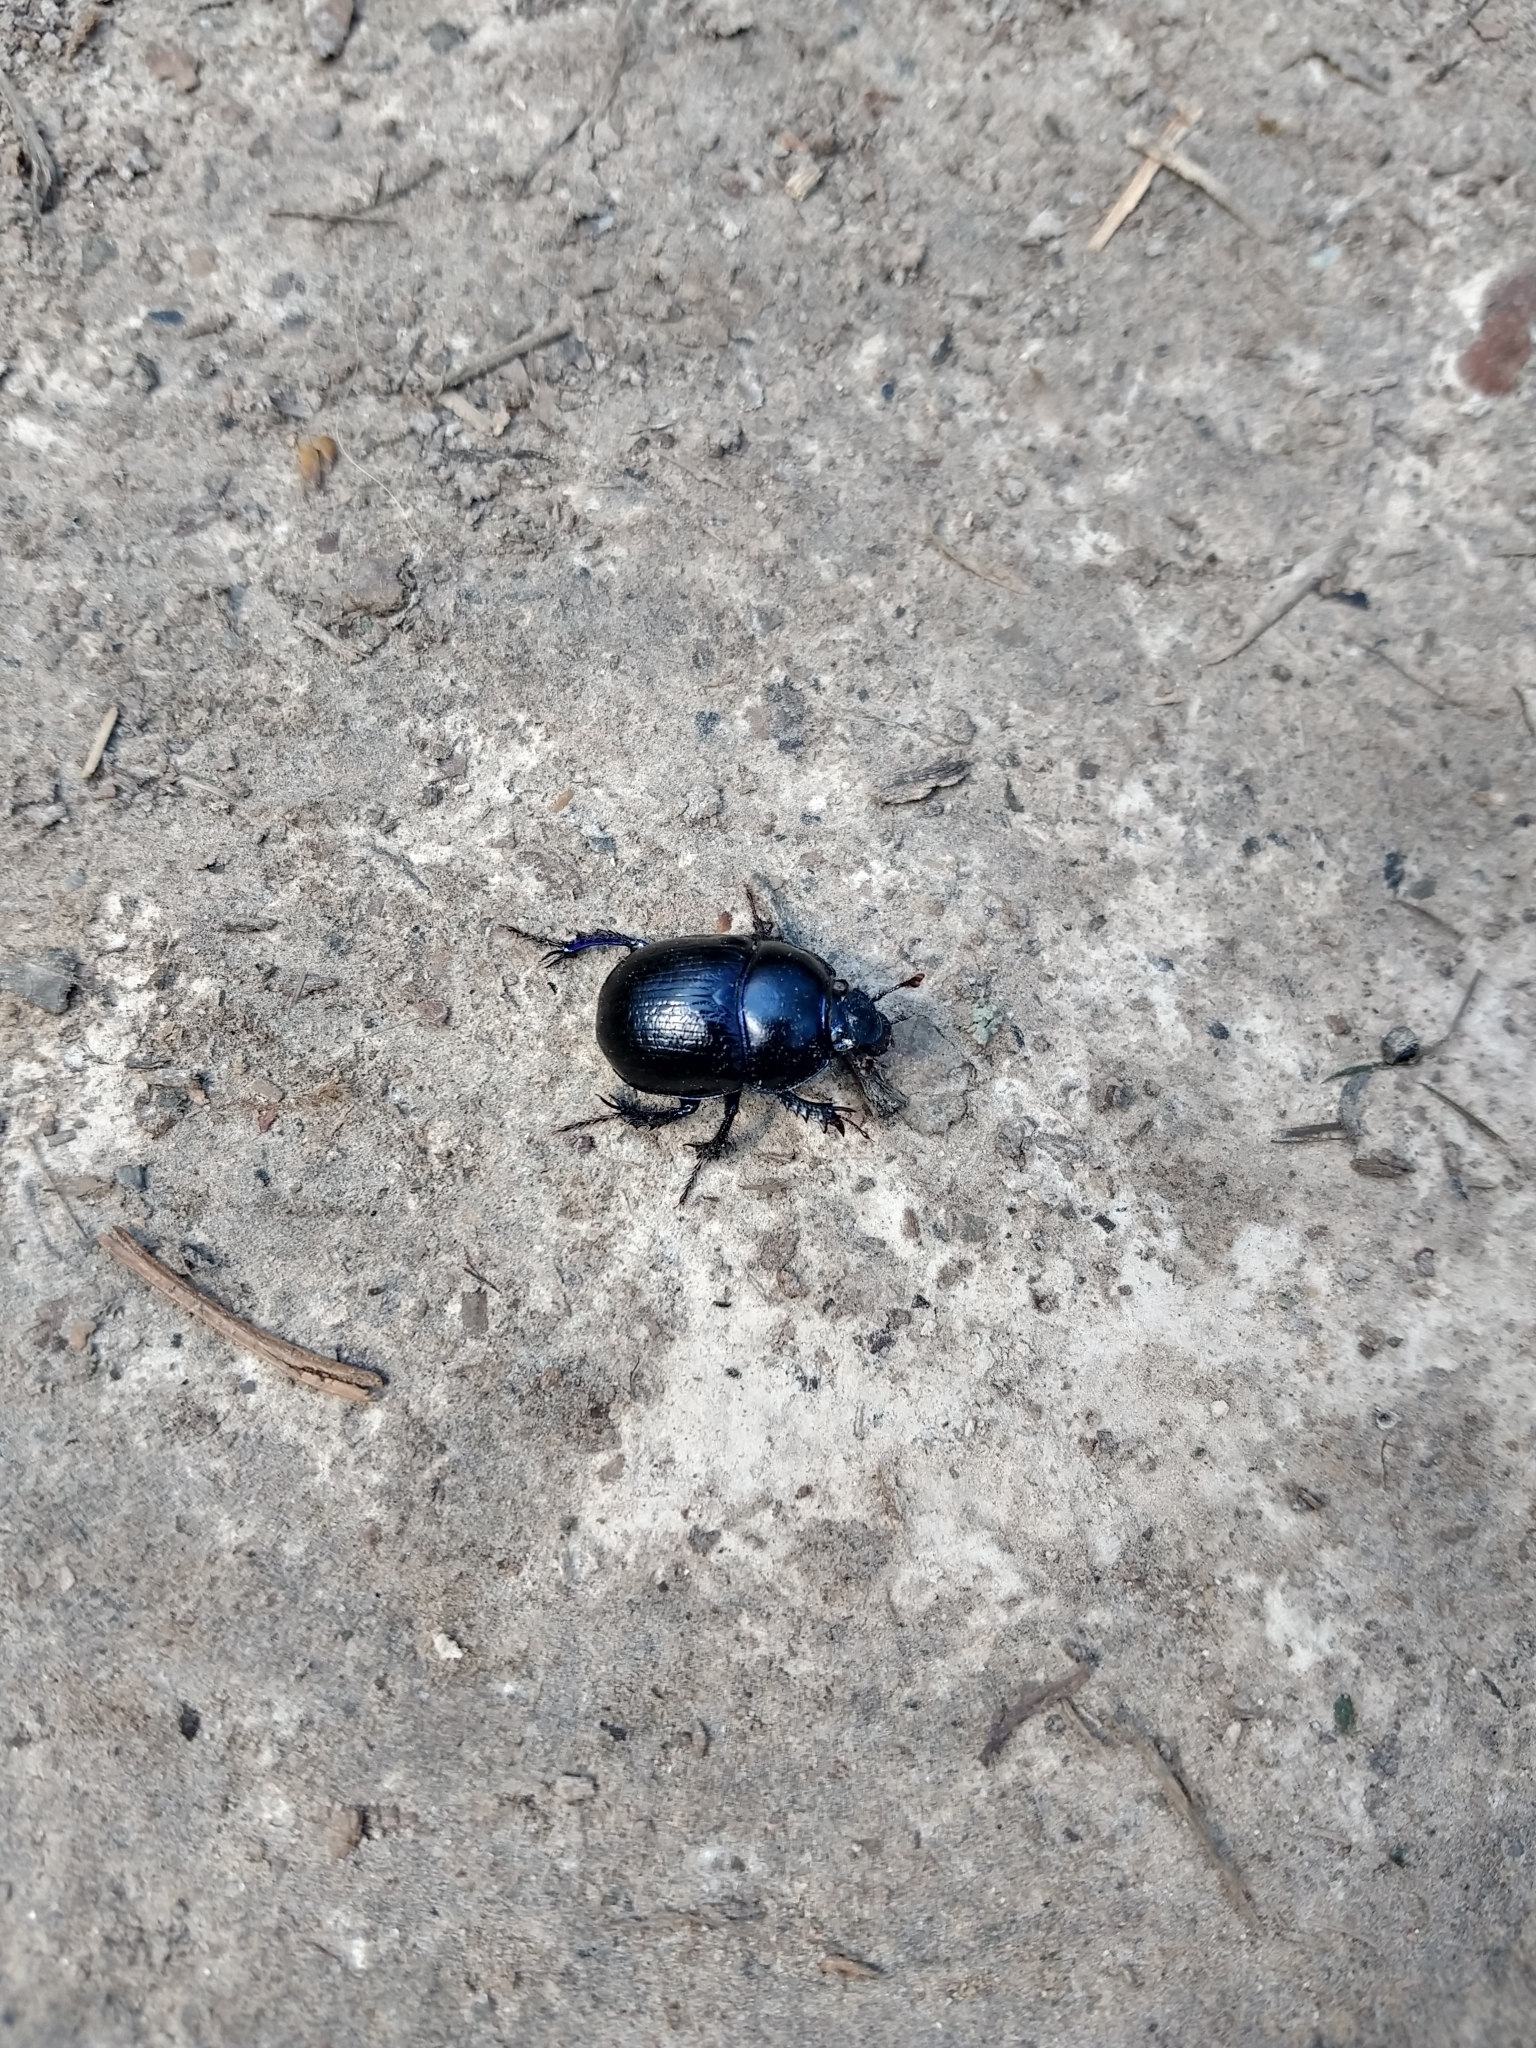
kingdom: Animalia
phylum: Arthropoda
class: Insecta
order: Coleoptera
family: Geotrupidae
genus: Anoplotrupes
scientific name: Anoplotrupes stercorosus
